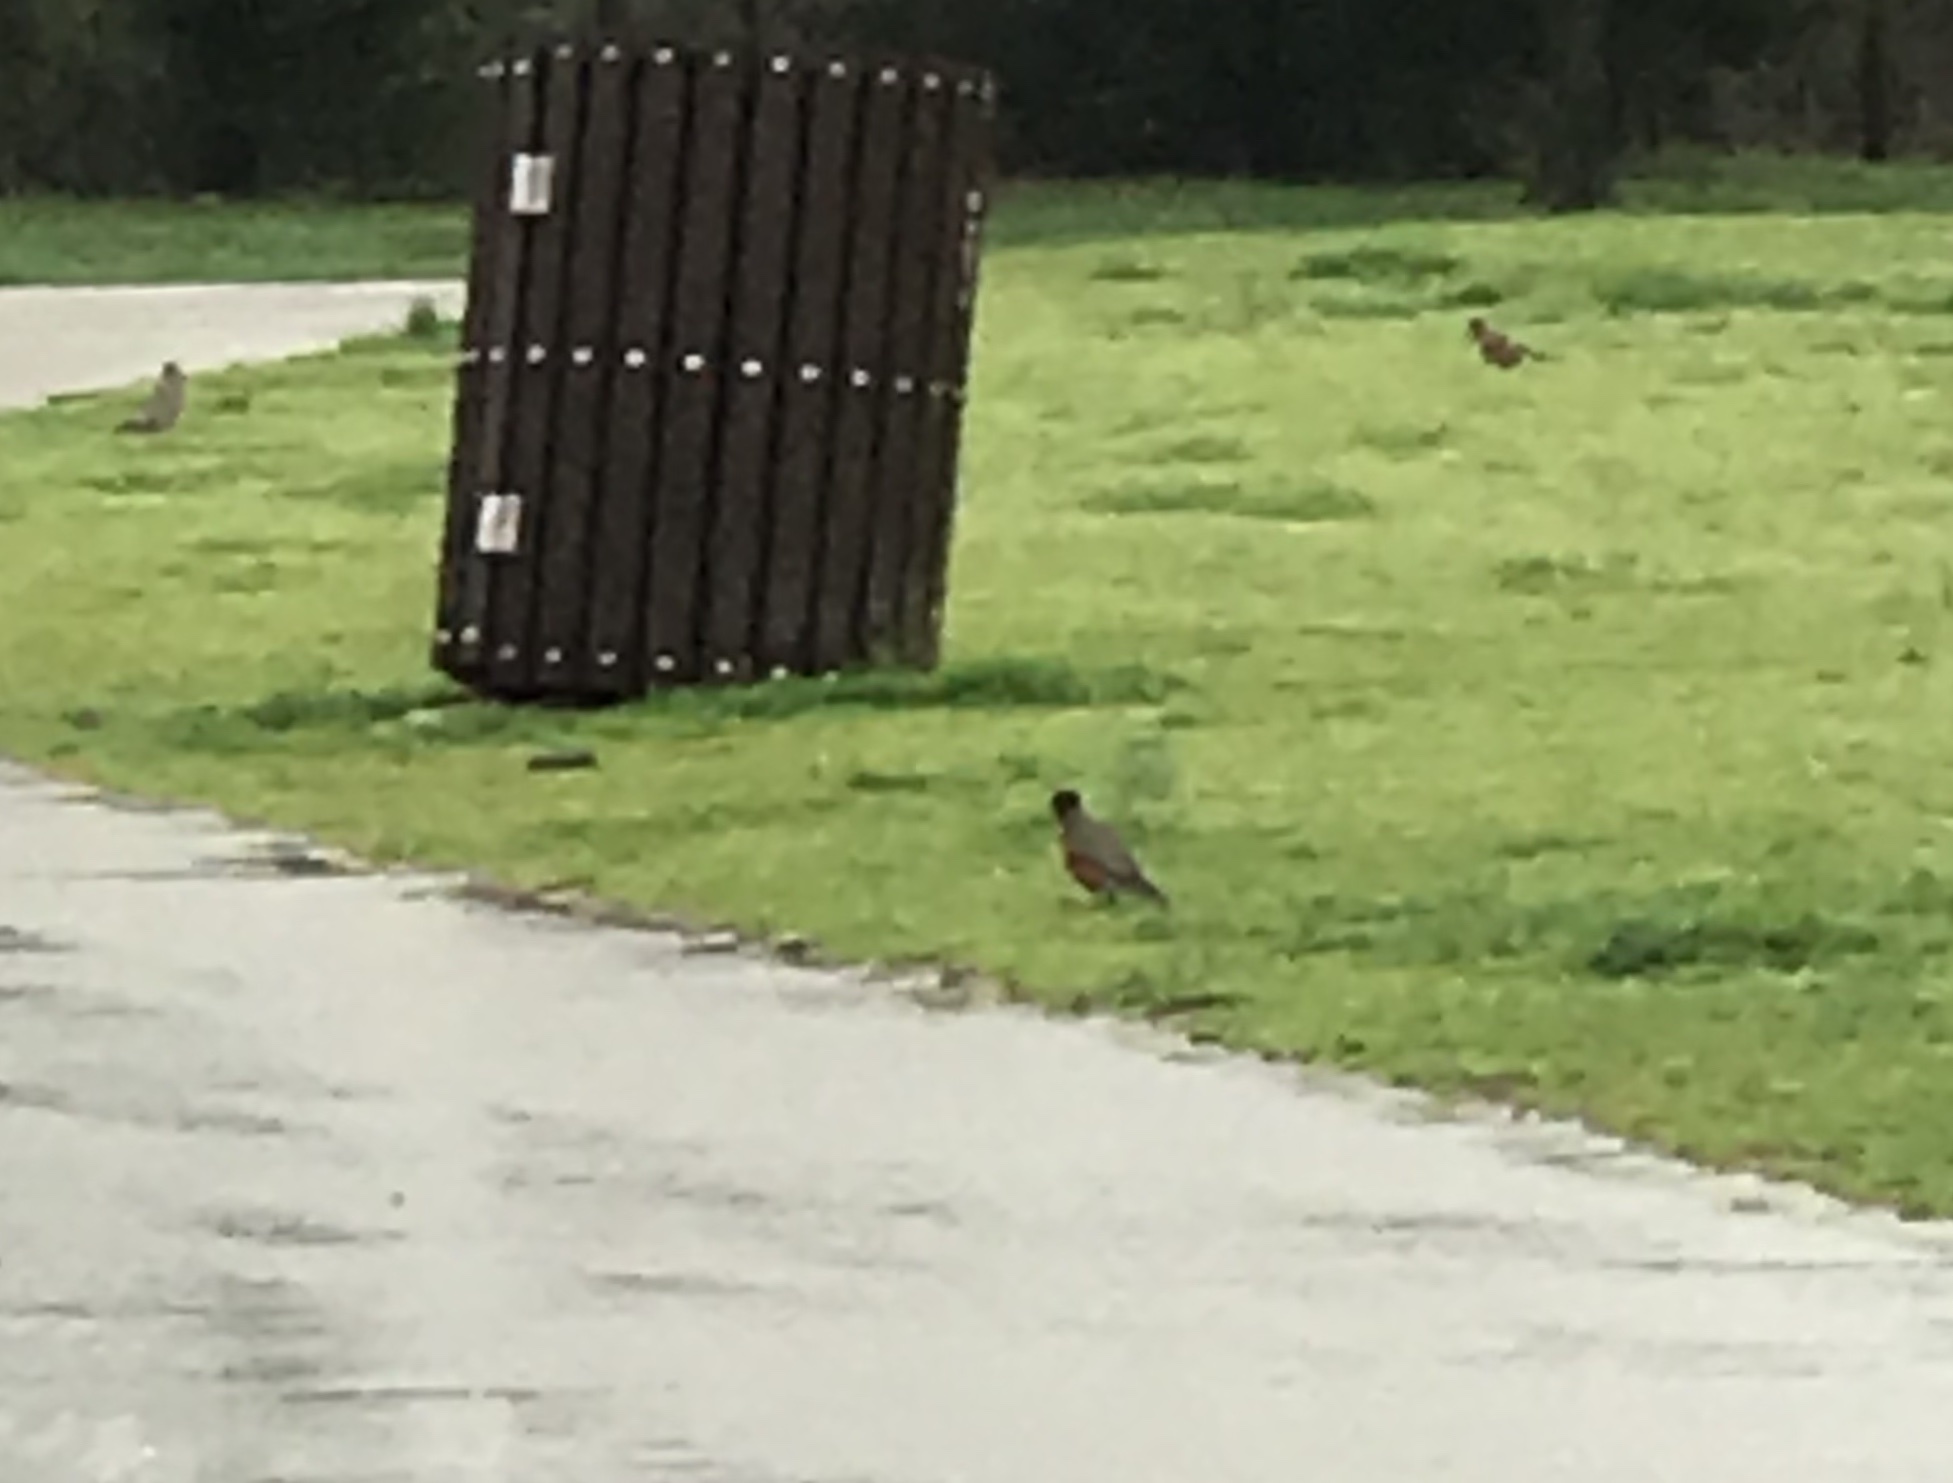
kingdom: Animalia
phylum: Chordata
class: Aves
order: Passeriformes
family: Turdidae
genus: Turdus
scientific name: Turdus migratorius
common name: American robin
